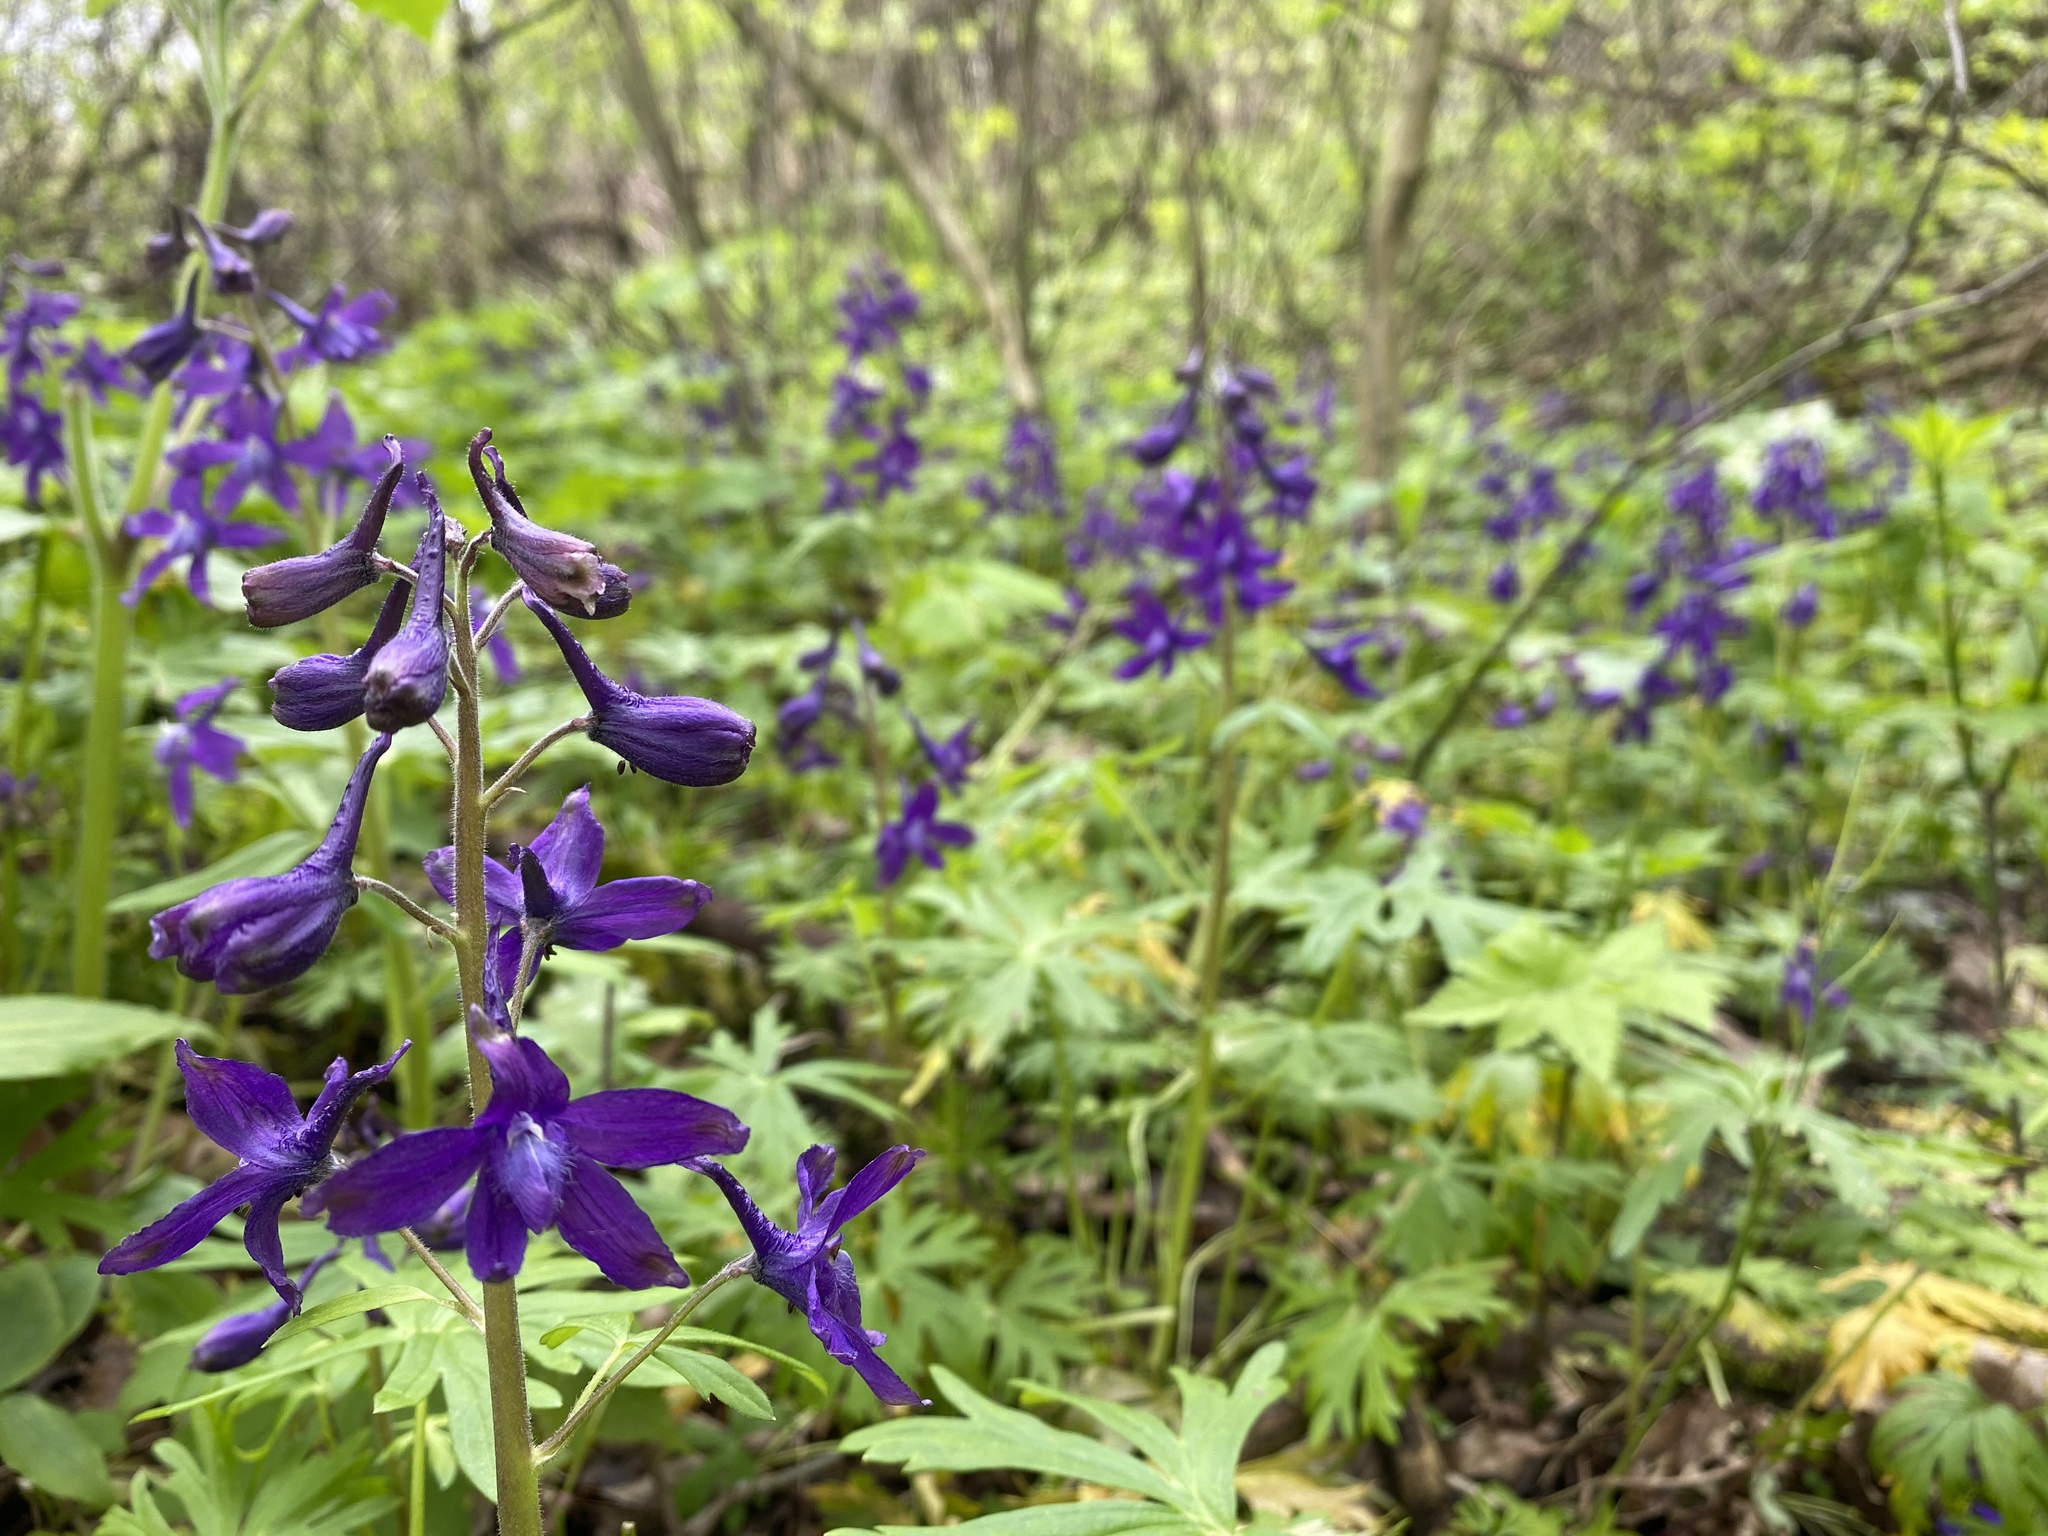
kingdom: Plantae
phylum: Tracheophyta
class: Magnoliopsida
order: Ranunculales
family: Ranunculaceae
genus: Delphinium
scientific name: Delphinium tricorne
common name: Dwarf larkspur
